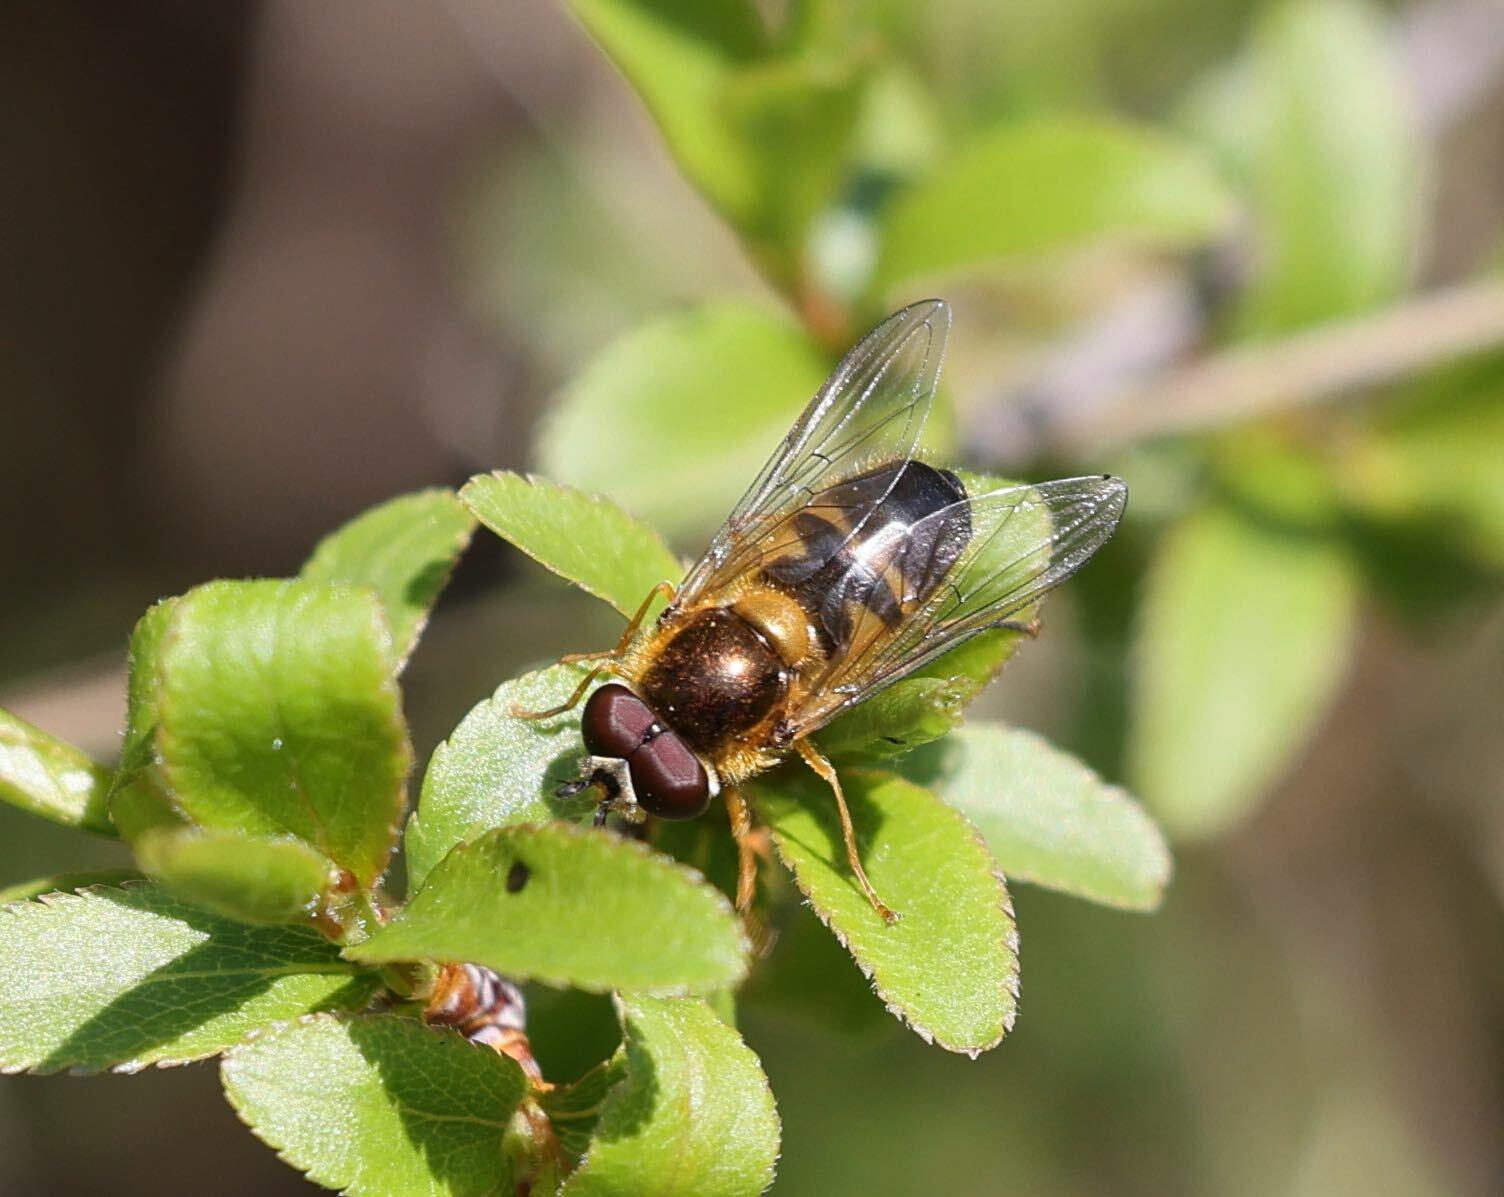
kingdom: Animalia
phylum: Arthropoda
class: Insecta
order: Diptera
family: Syrphidae
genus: Epistrophe
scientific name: Epistrophe eligans
